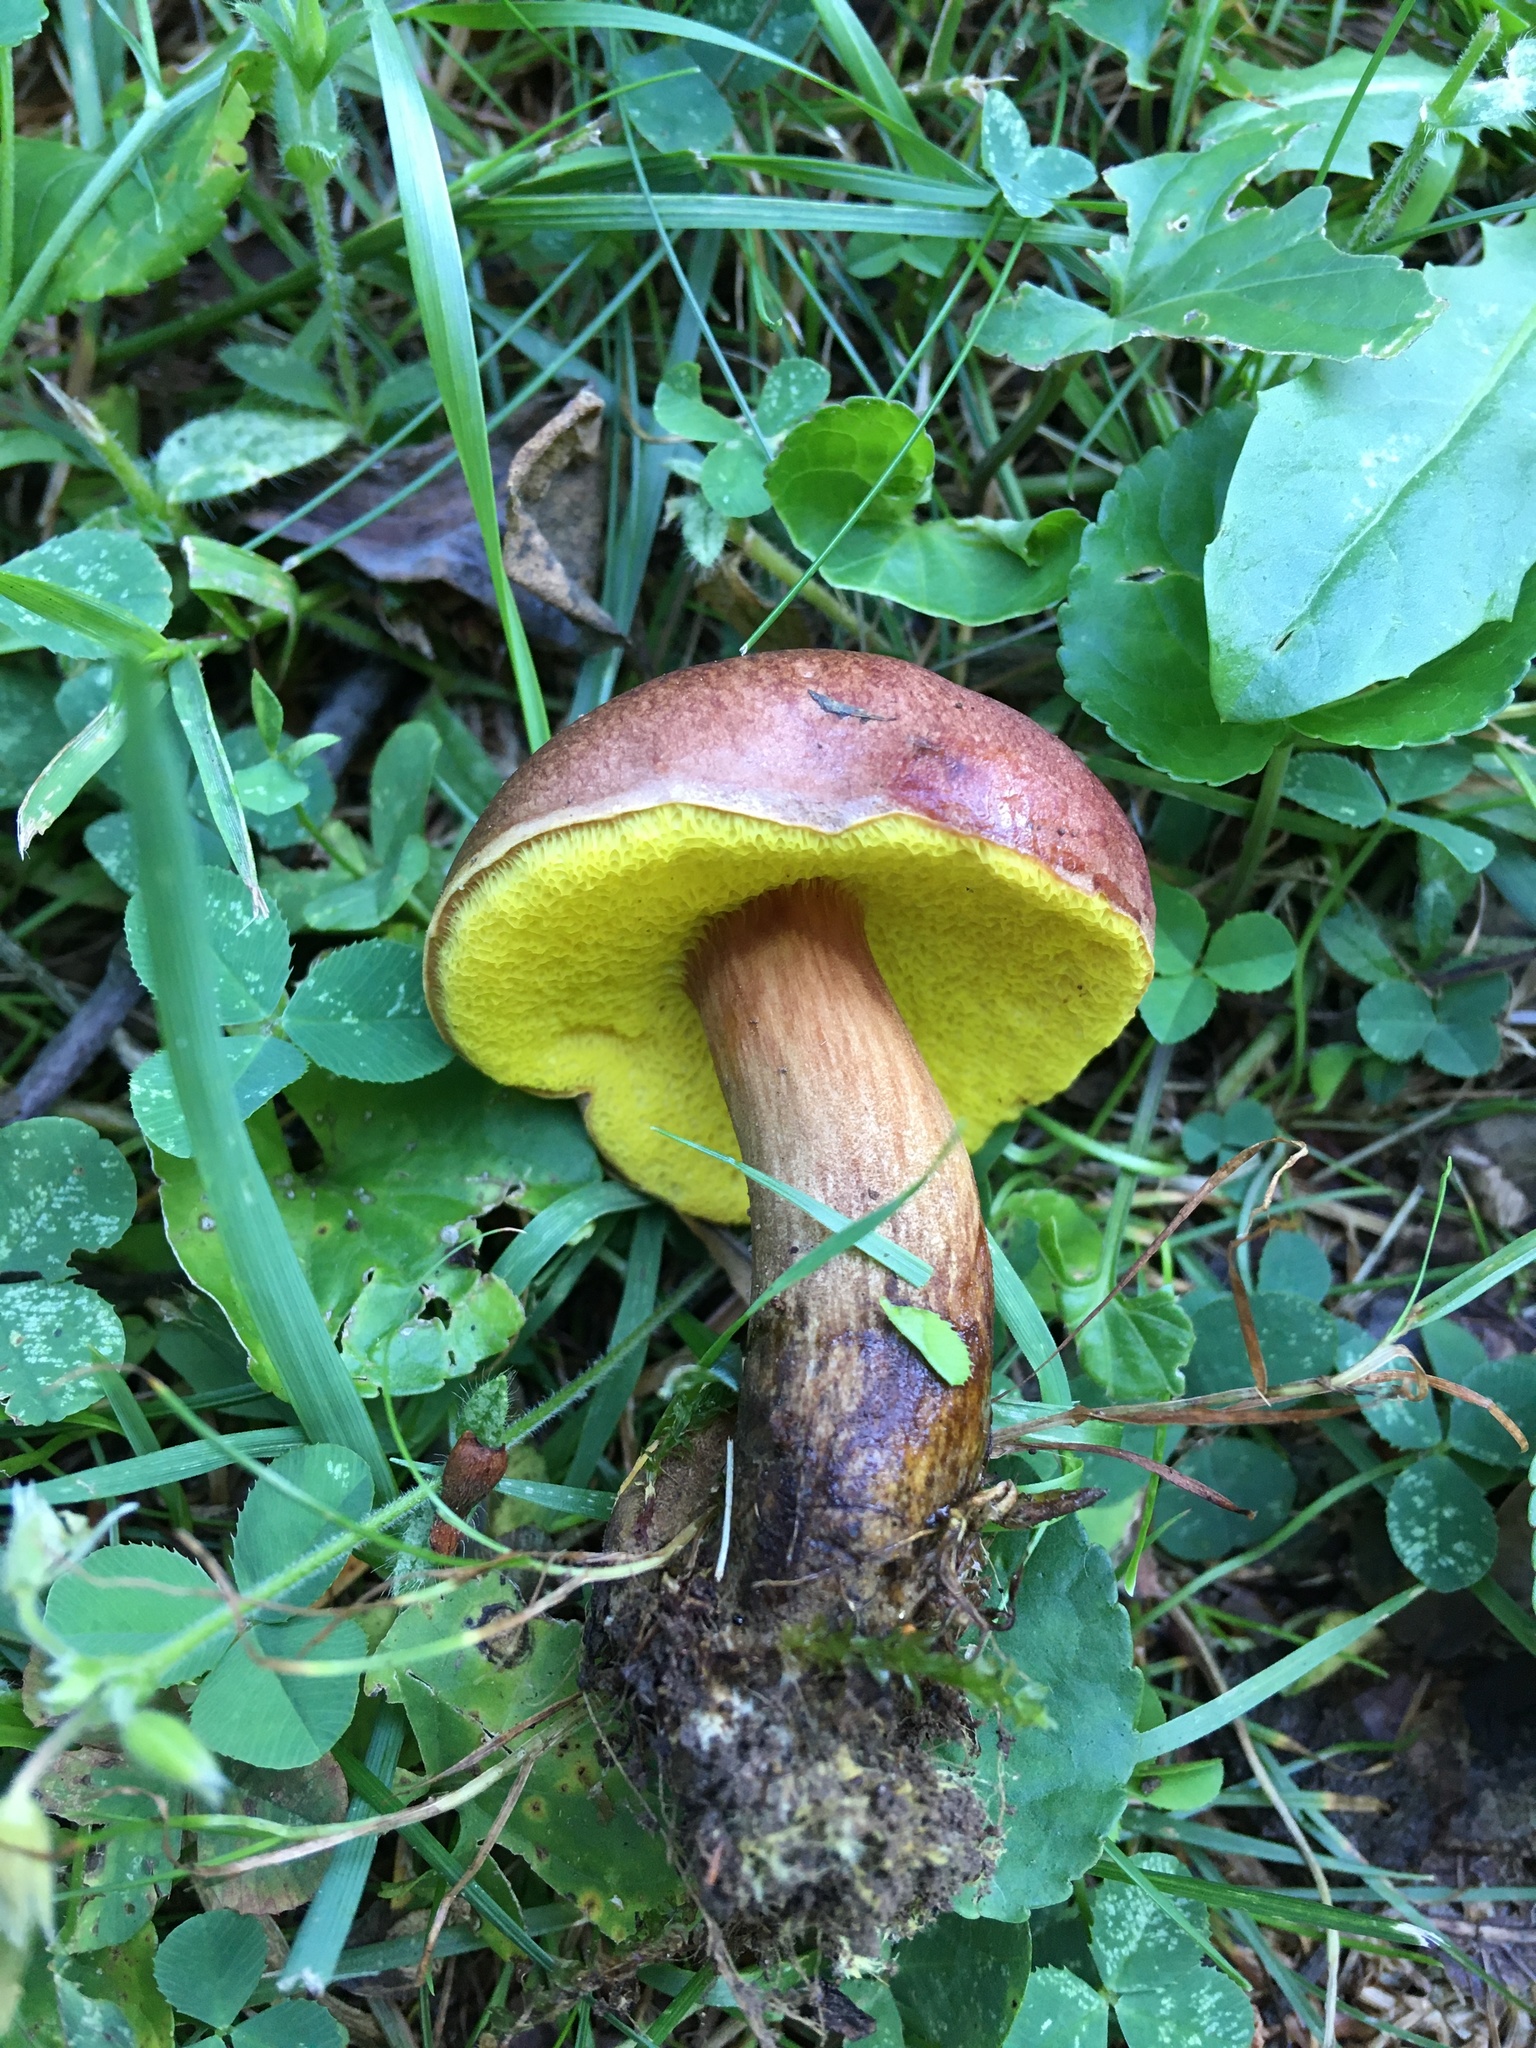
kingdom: Fungi
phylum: Basidiomycota
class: Agaricomycetes
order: Boletales
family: Boletaceae
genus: Aureoboletus
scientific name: Aureoboletus innixus
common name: Clustered brown bolete
